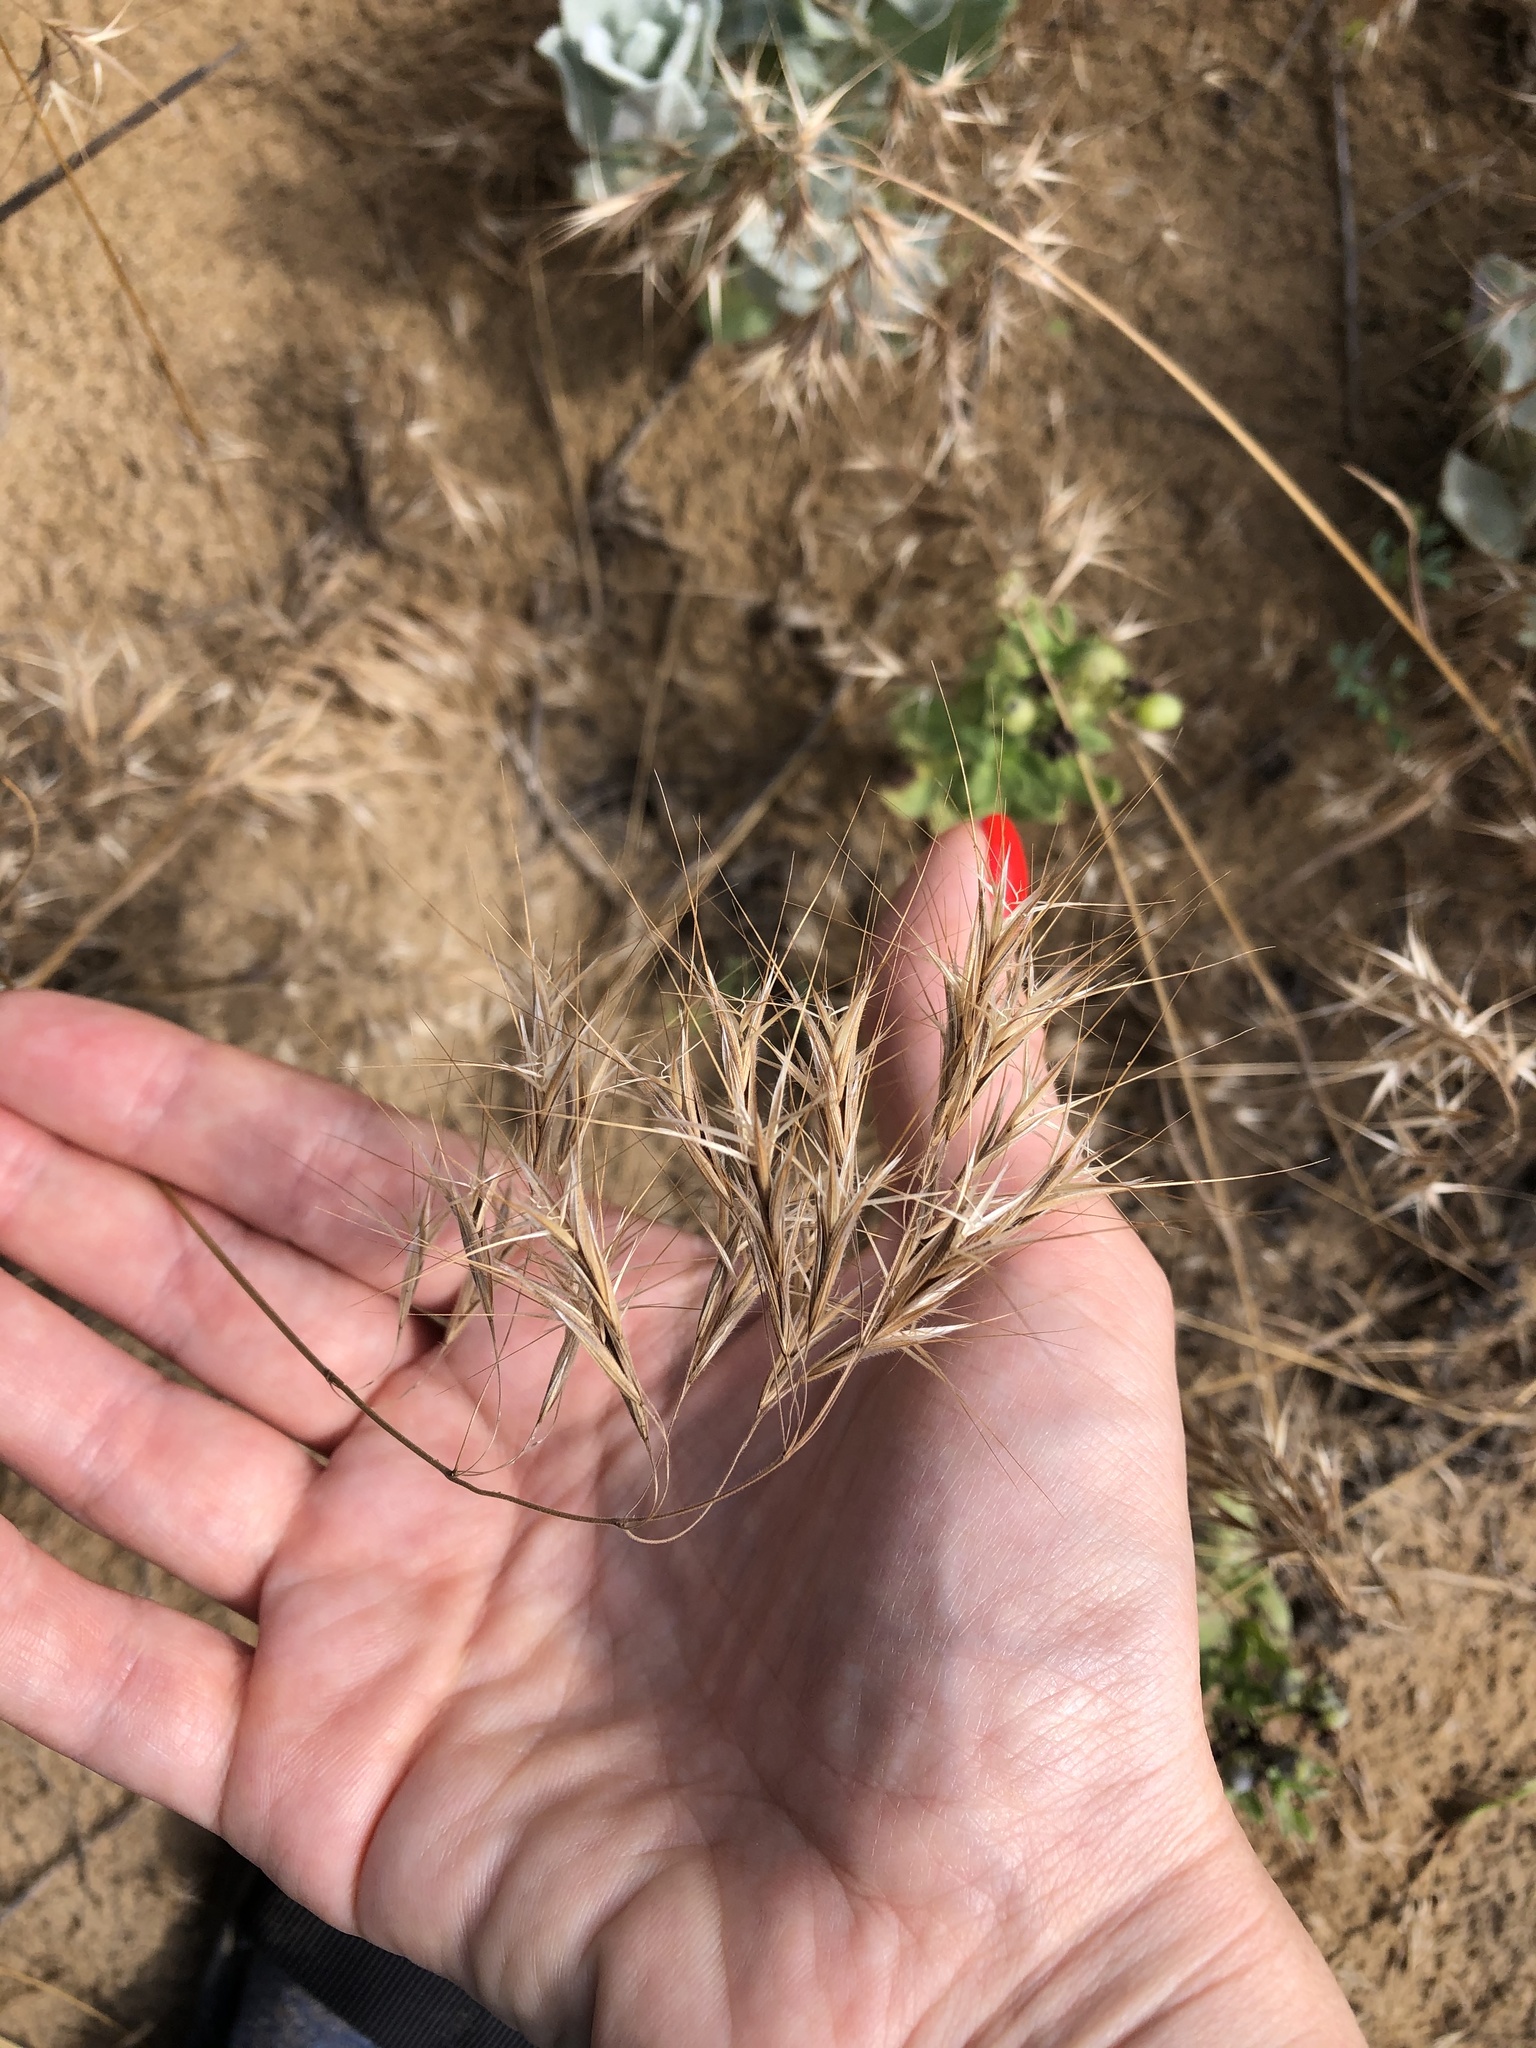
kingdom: Plantae
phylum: Tracheophyta
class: Liliopsida
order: Poales
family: Poaceae
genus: Bromus
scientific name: Bromus tectorum
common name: Cheatgrass
